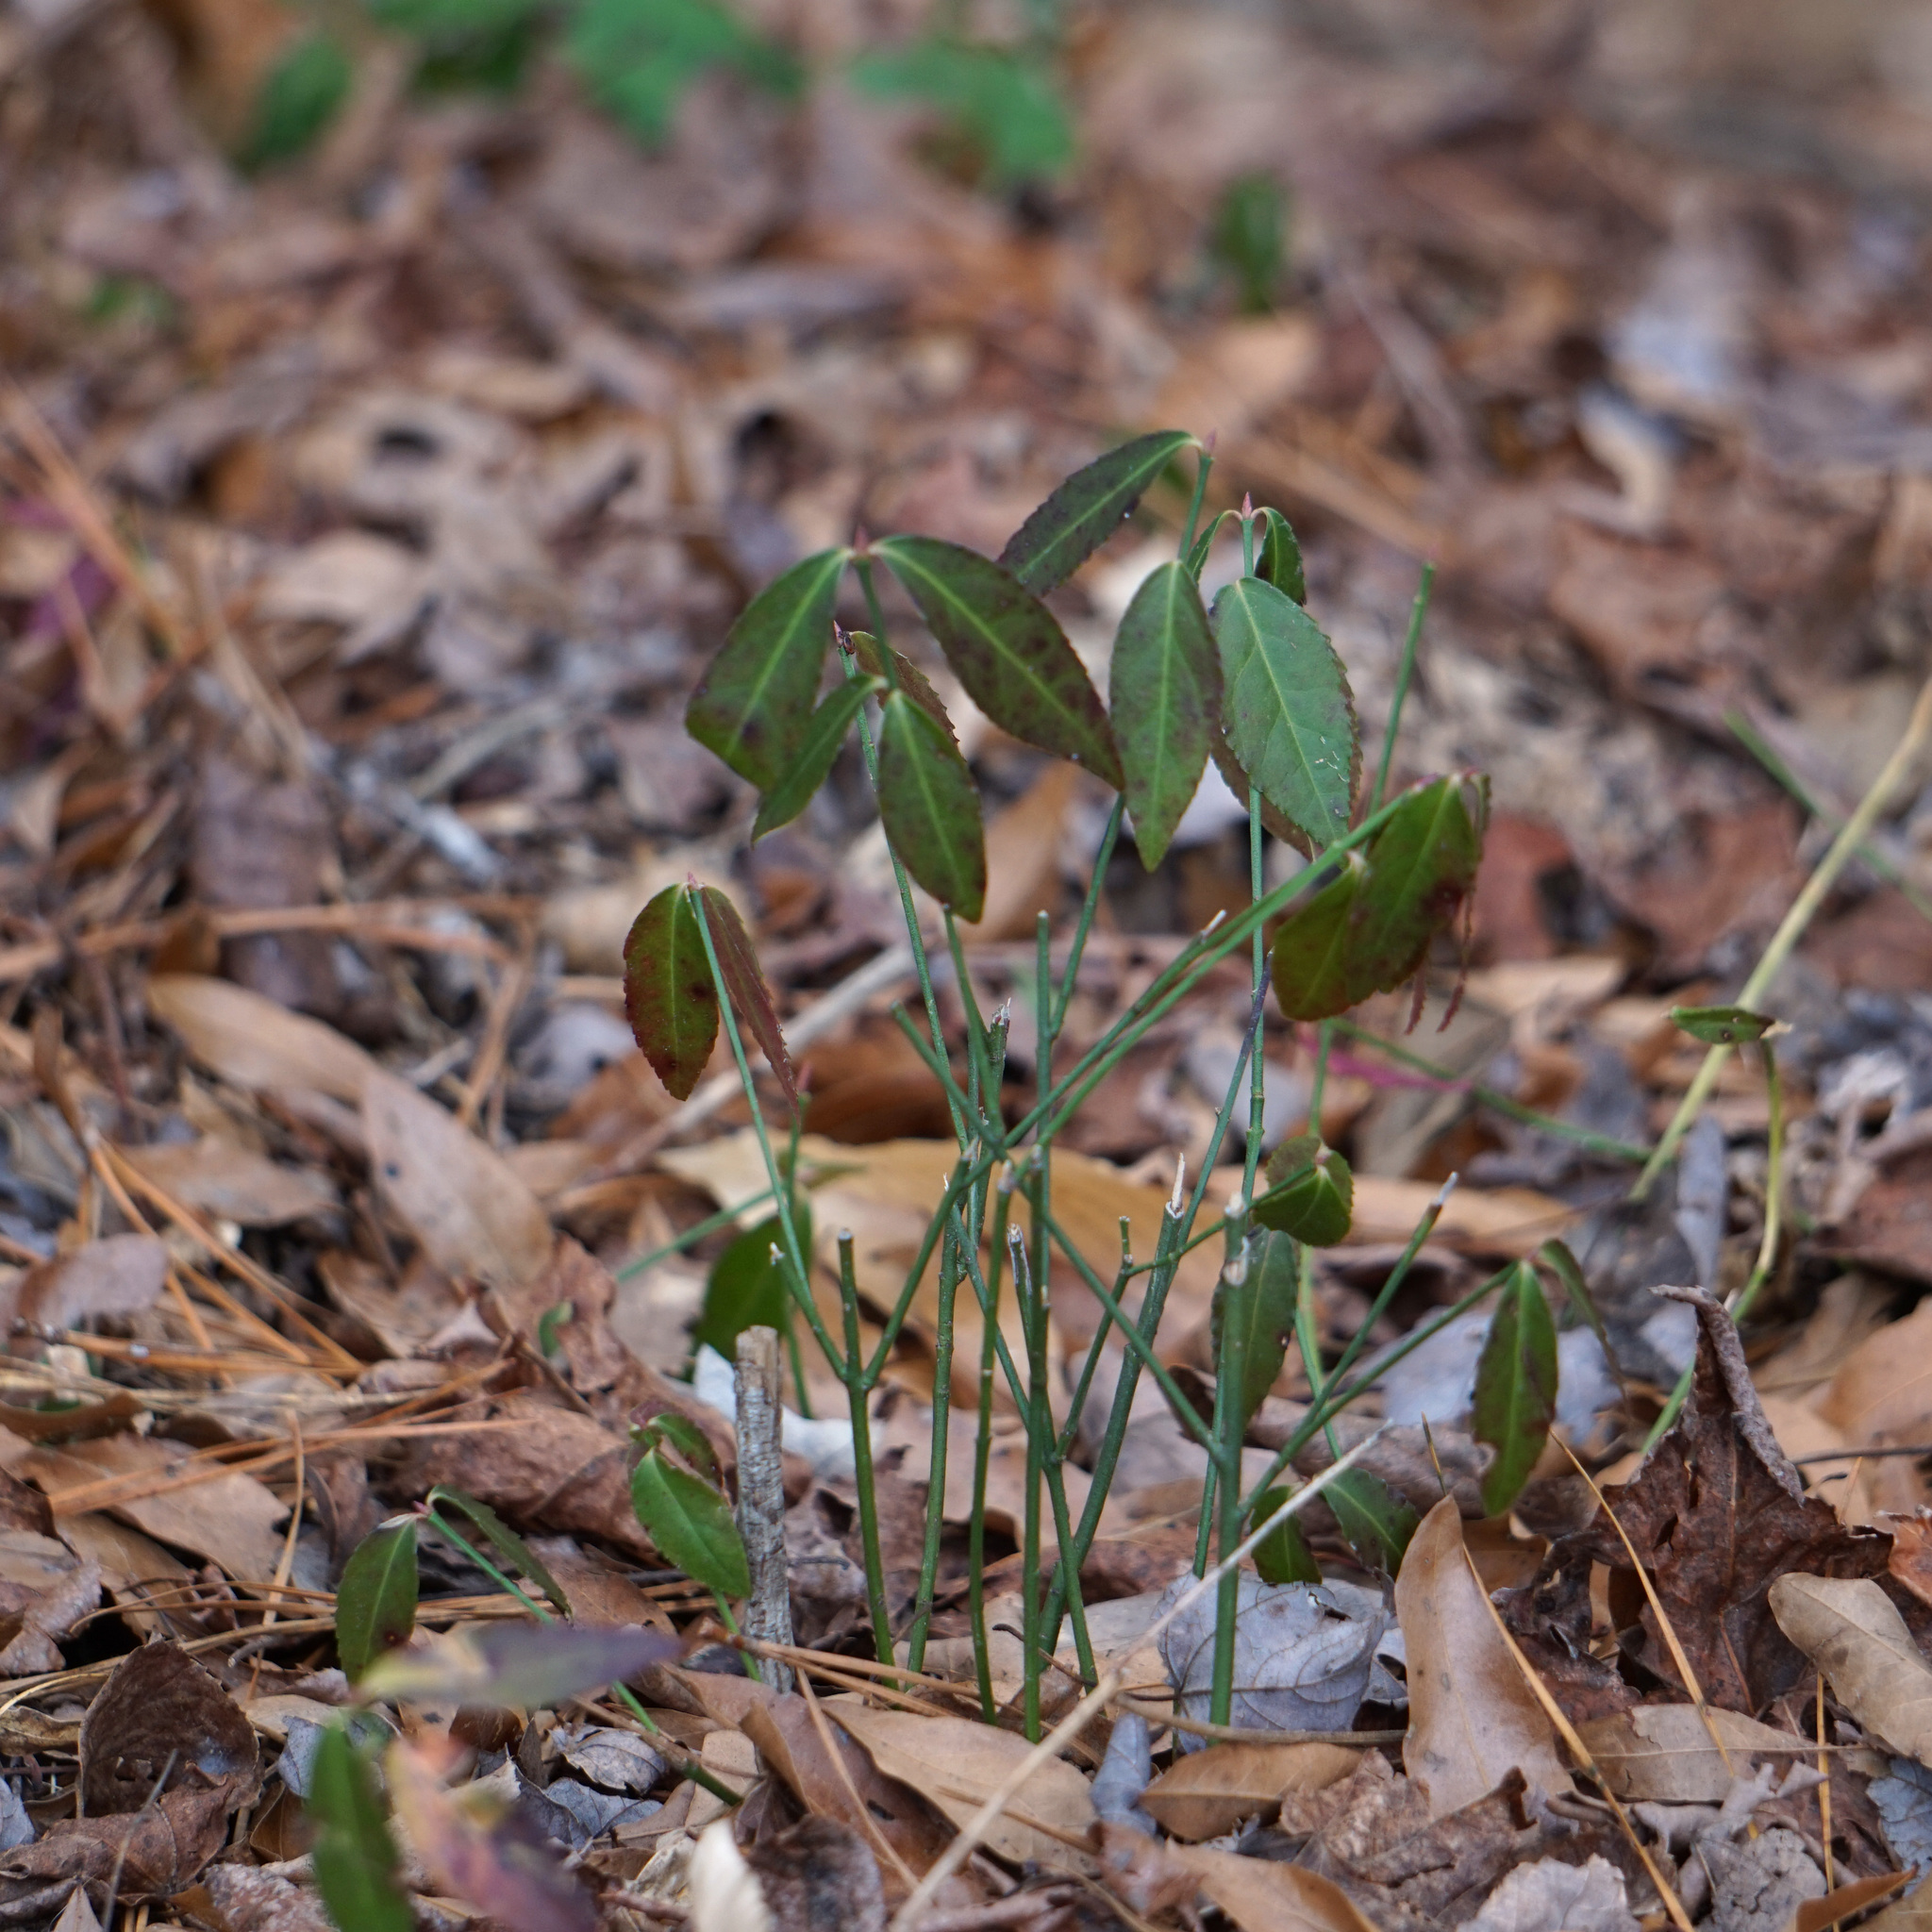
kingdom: Plantae
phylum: Tracheophyta
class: Magnoliopsida
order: Celastrales
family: Celastraceae
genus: Euonymus
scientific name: Euonymus fortunei
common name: Climbing euonymus
